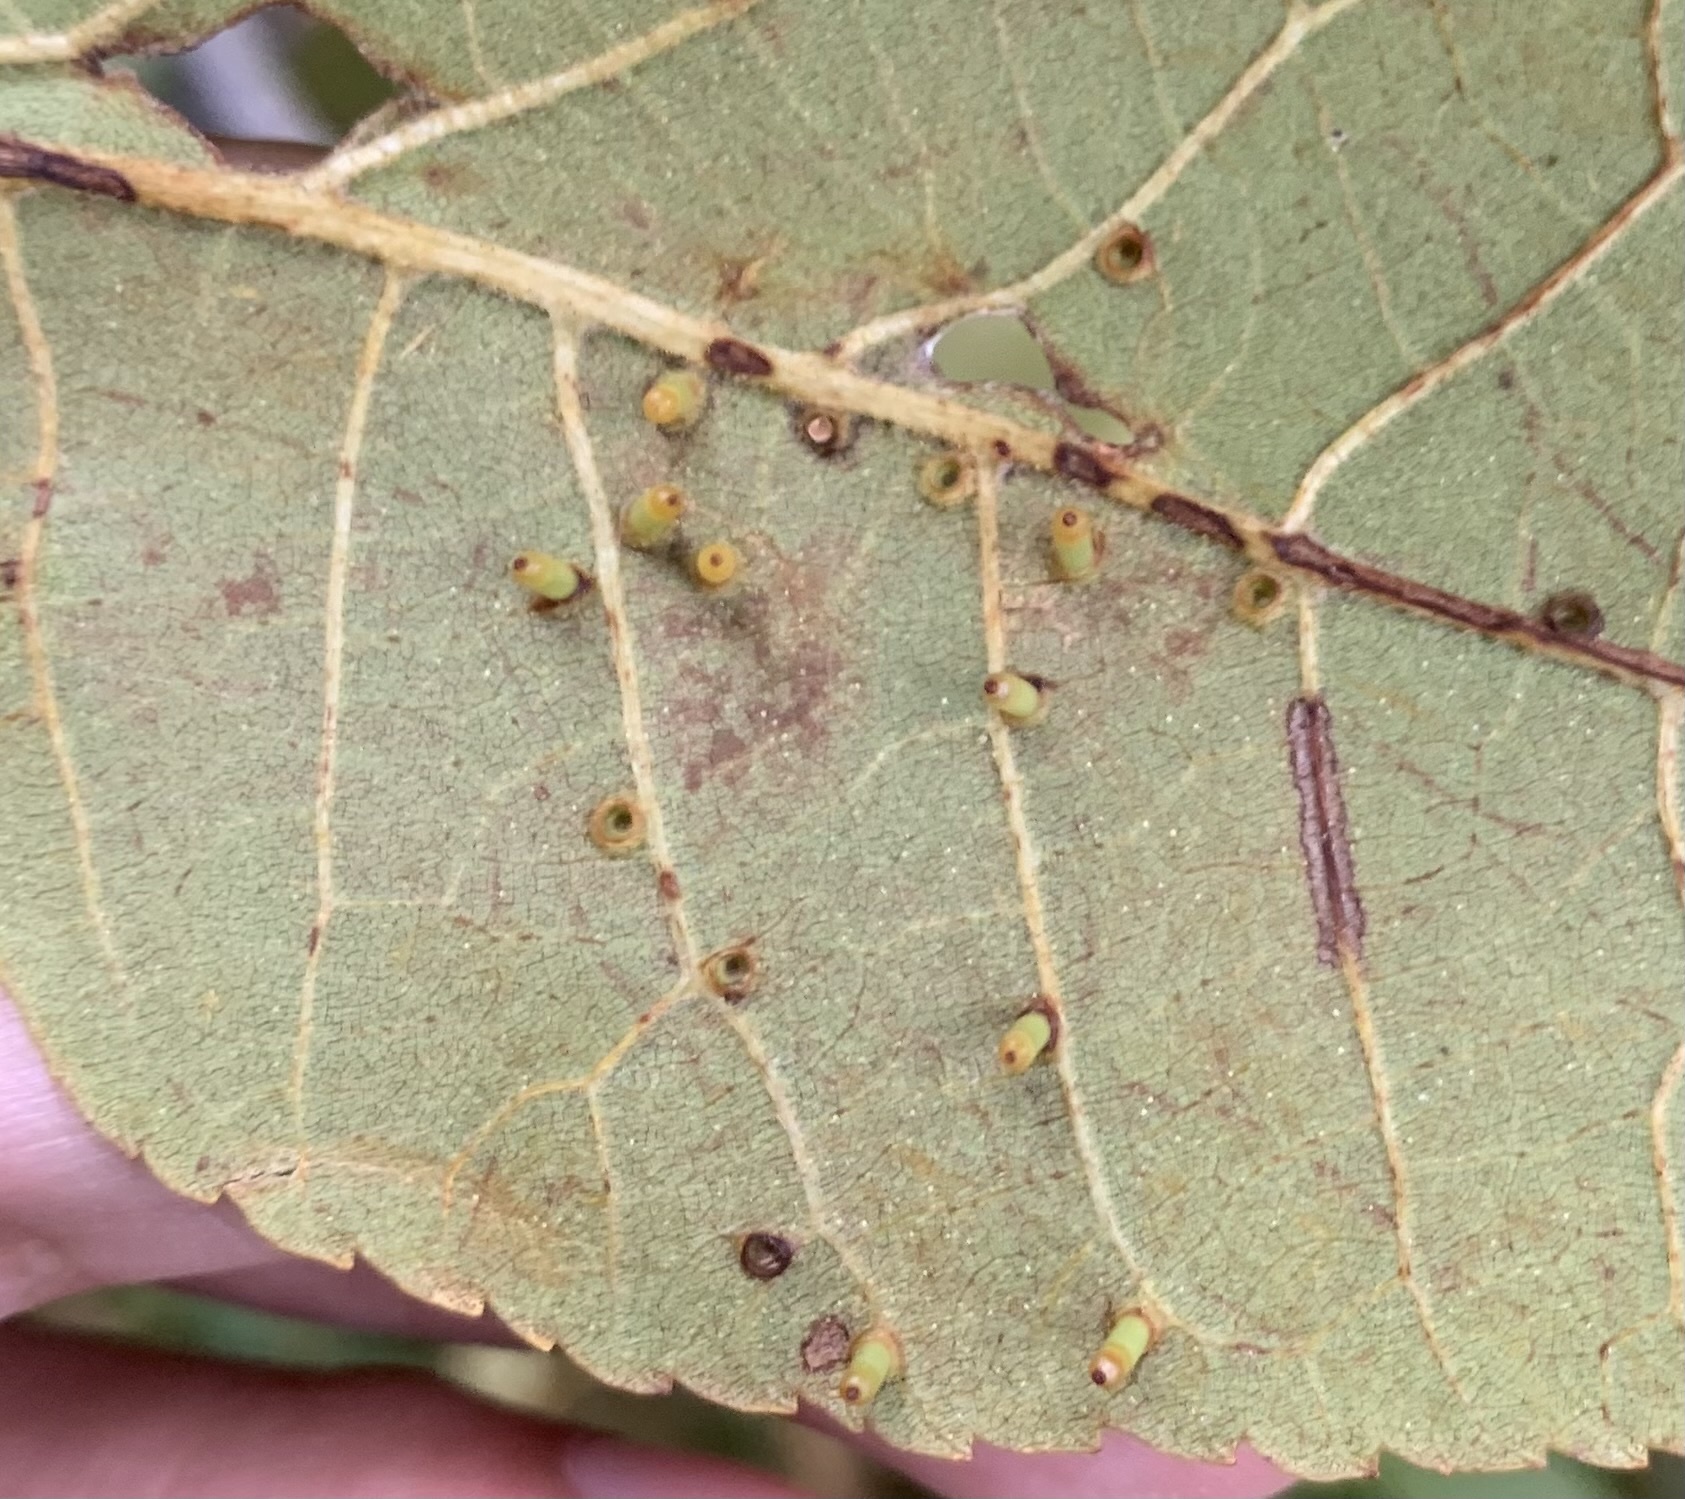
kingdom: Animalia
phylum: Arthropoda
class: Insecta
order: Diptera
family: Cecidomyiidae
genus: Caryomyia
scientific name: Caryomyia tubicola
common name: Hickory bullet gall midge
